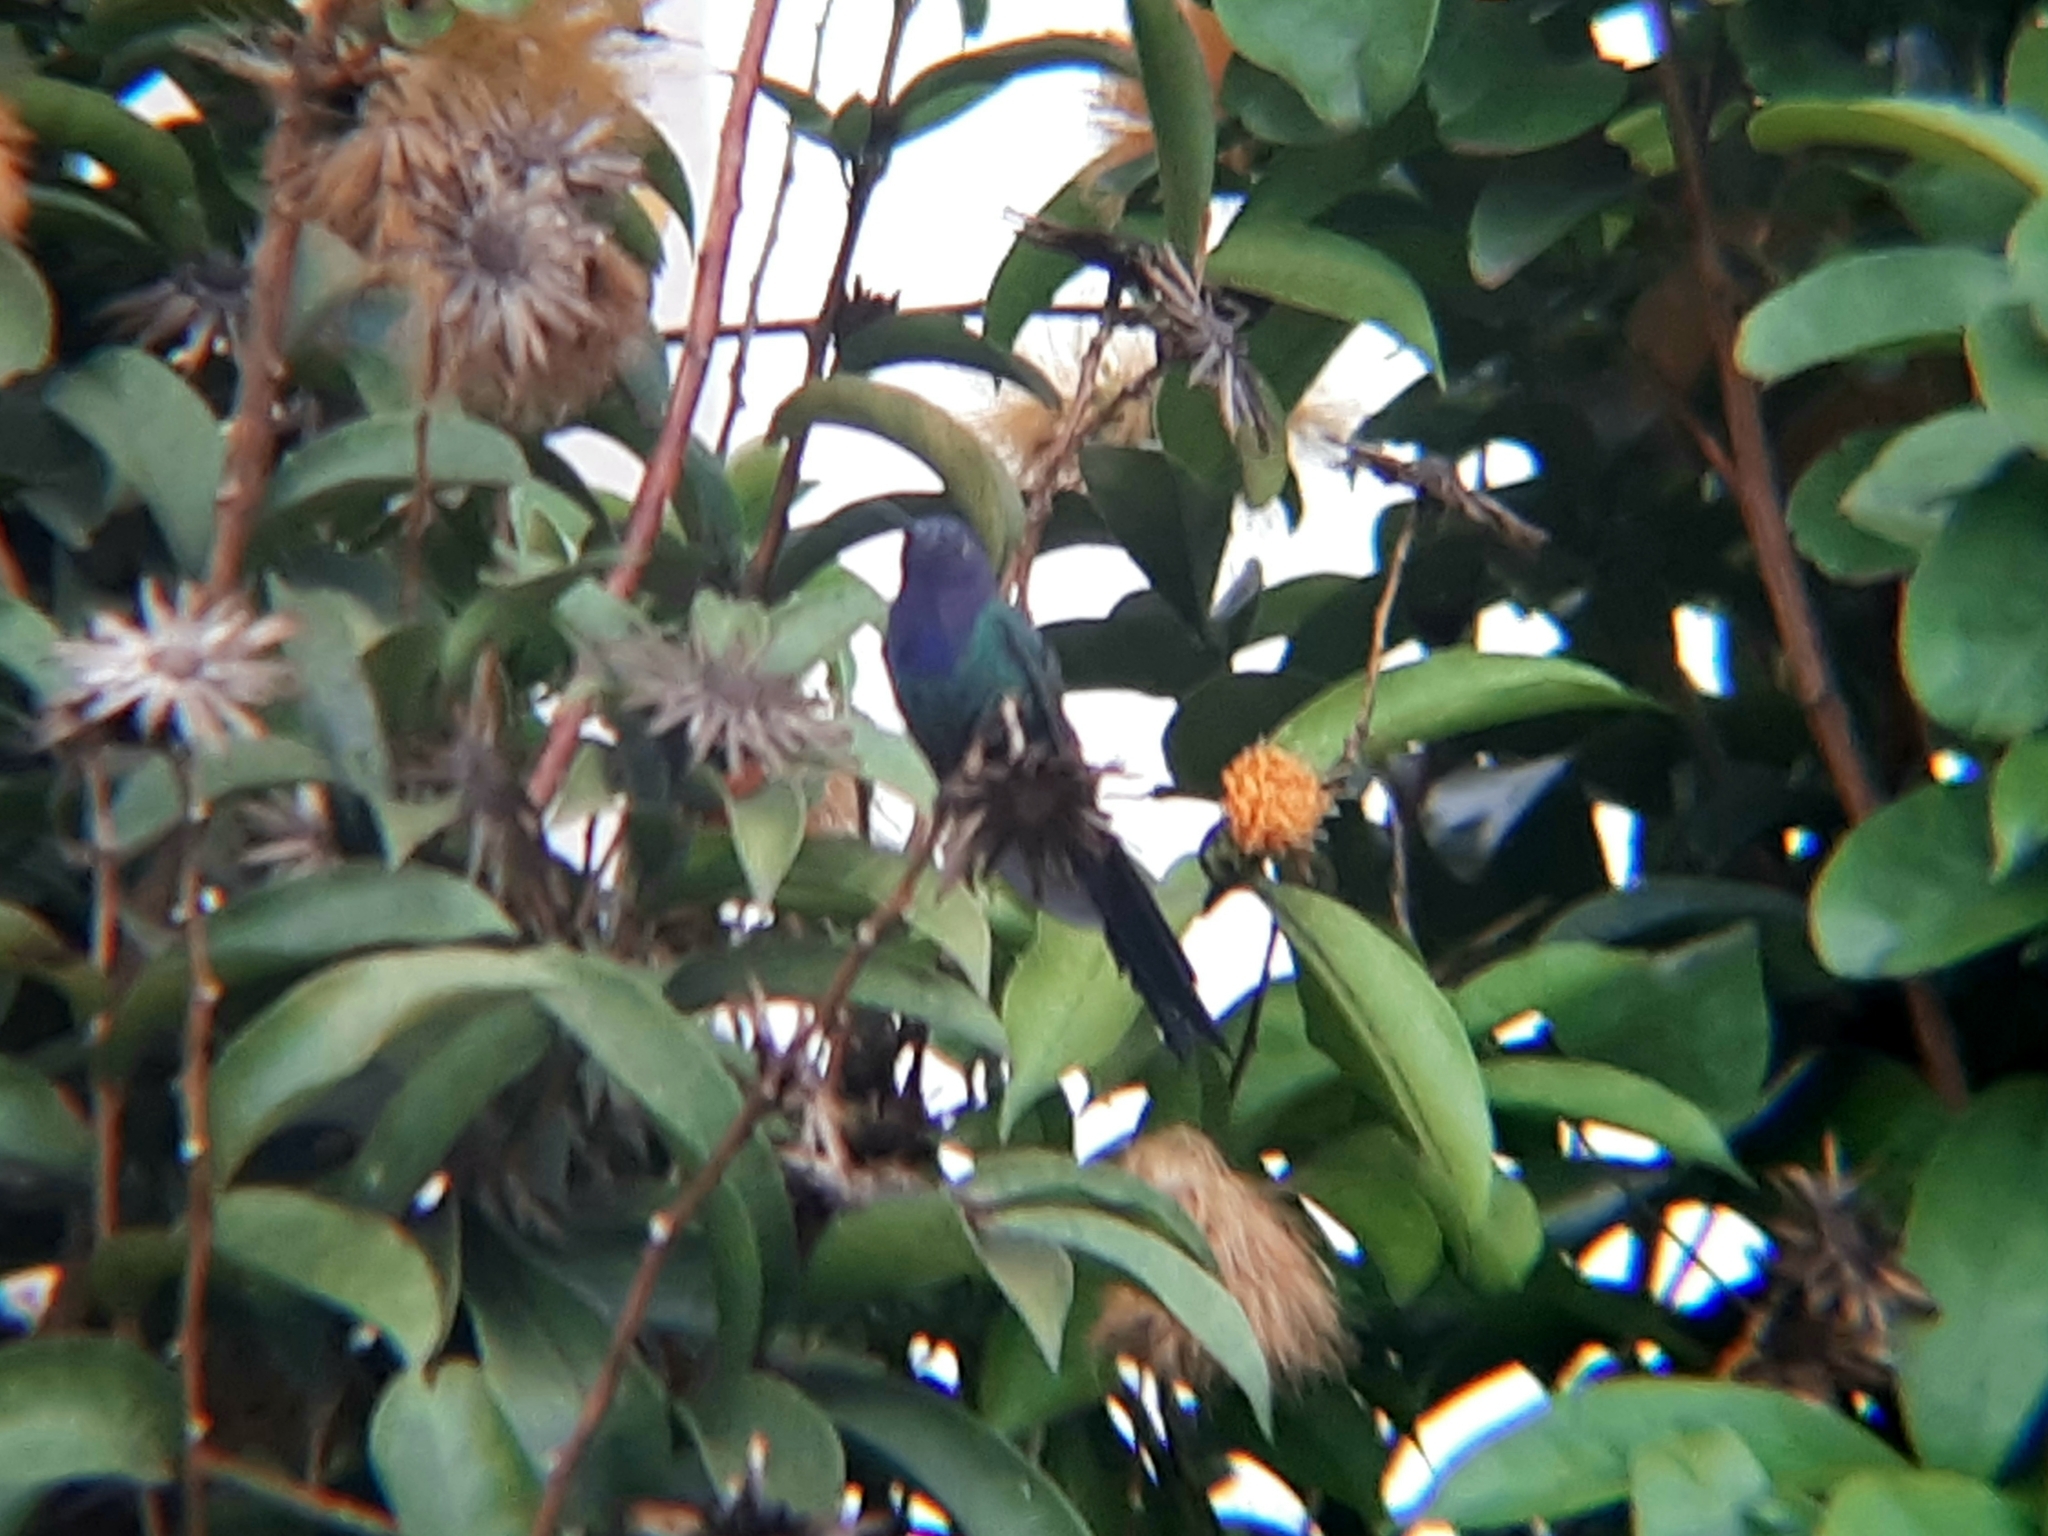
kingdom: Animalia
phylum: Chordata
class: Aves
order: Apodiformes
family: Trochilidae
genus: Eupetomena
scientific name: Eupetomena macroura
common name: Swallow-tailed hummingbird
